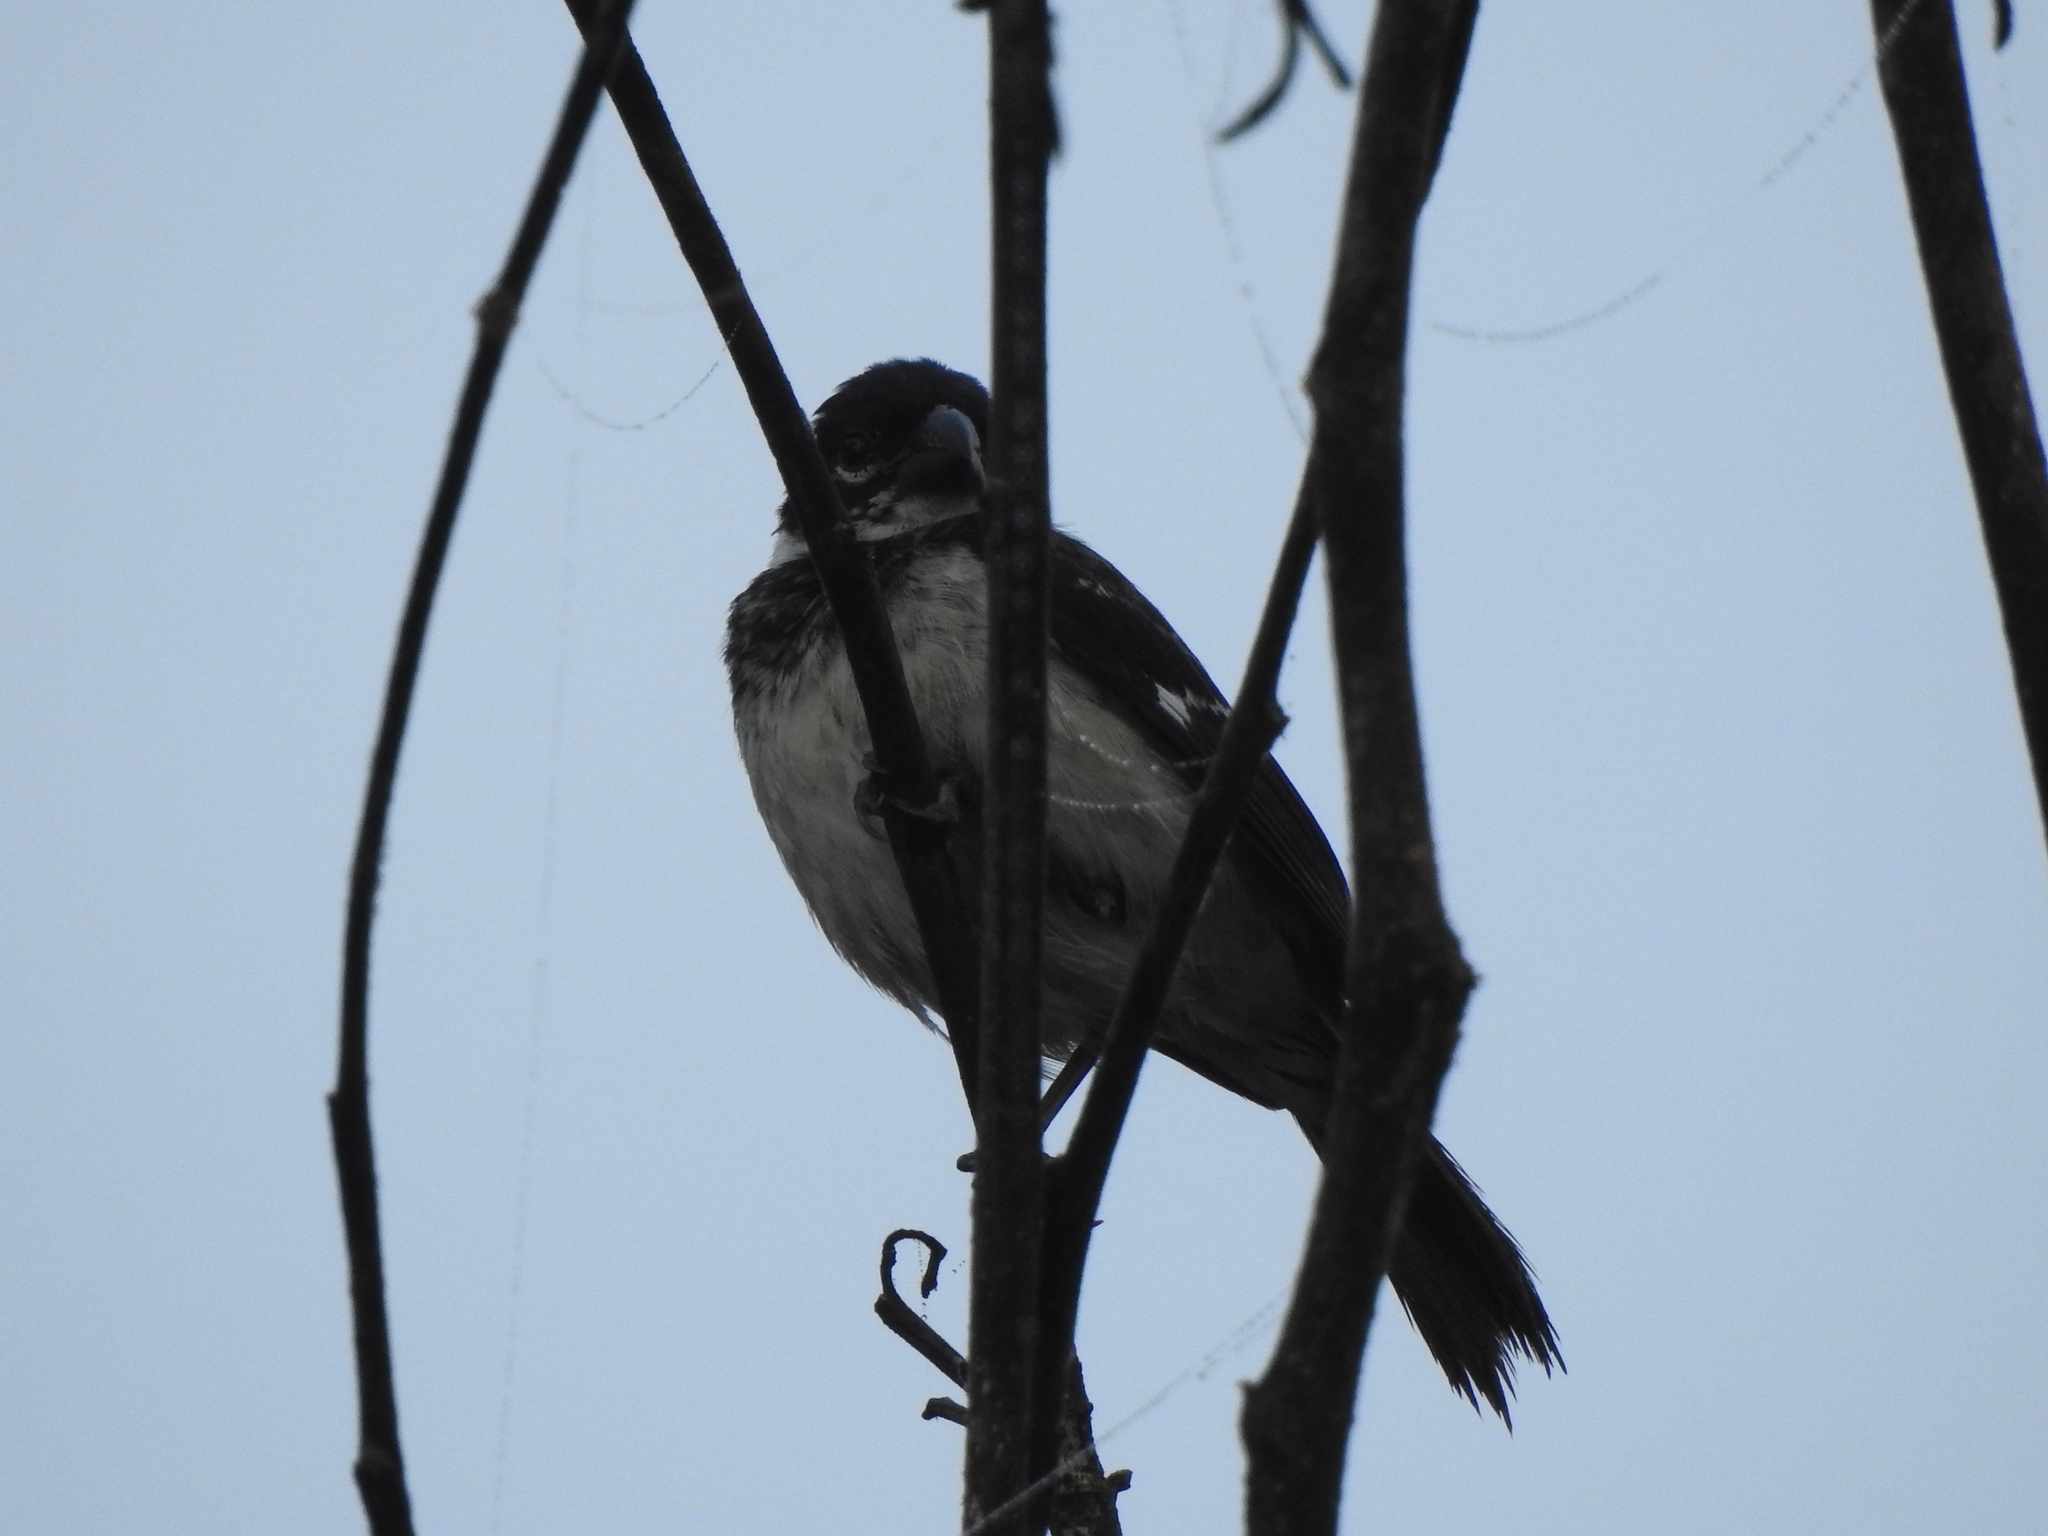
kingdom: Animalia
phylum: Chordata
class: Aves
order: Passeriformes
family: Thraupidae
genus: Sporophila
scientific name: Sporophila morelleti
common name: Morelet's seedeater
